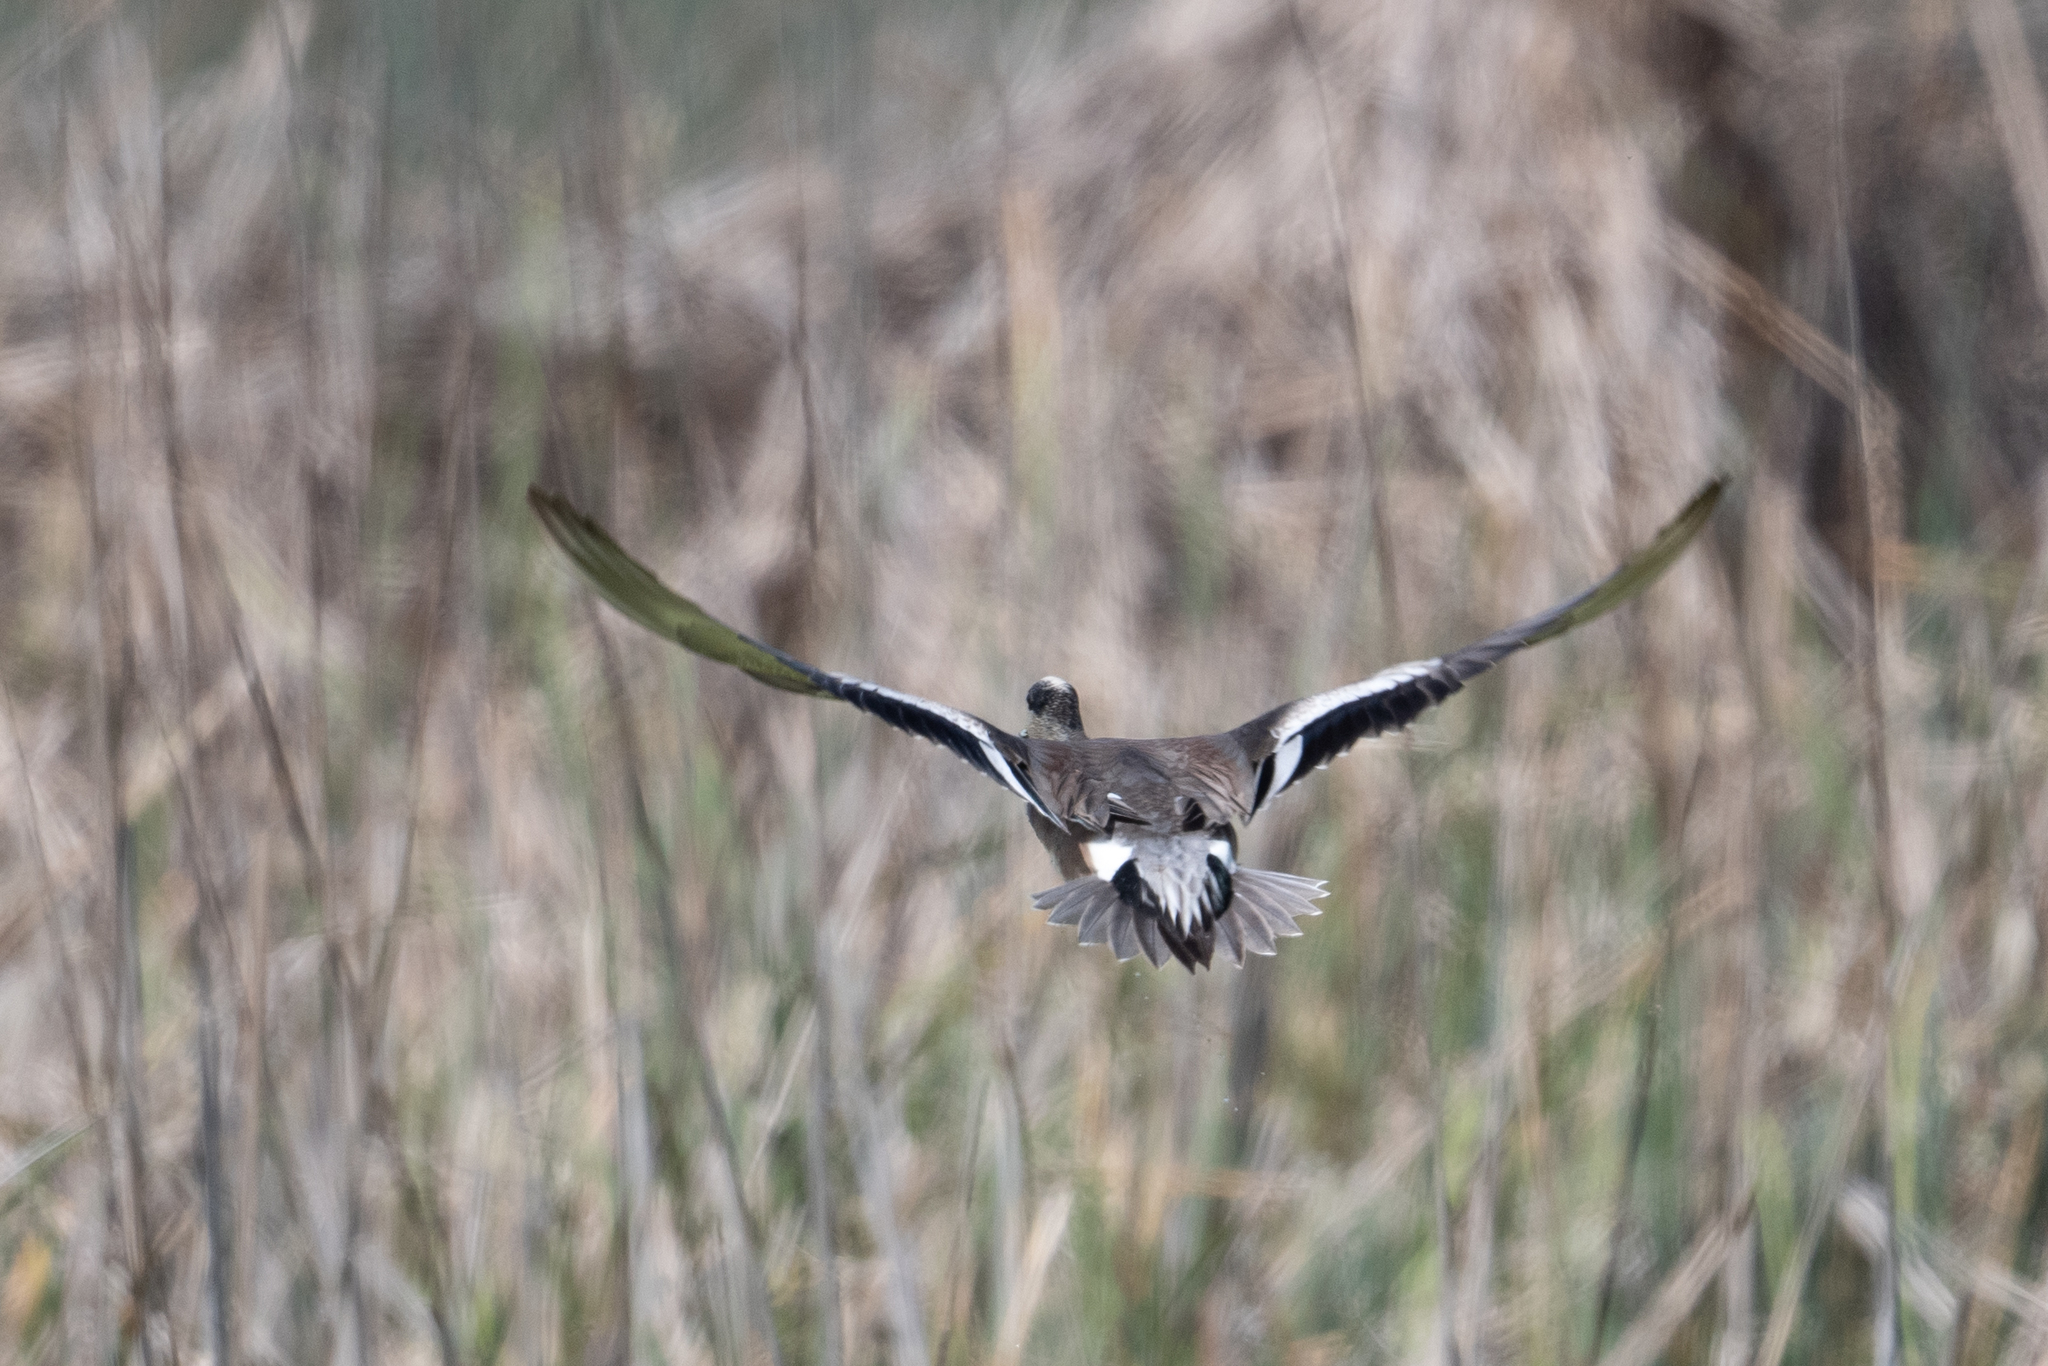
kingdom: Animalia
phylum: Chordata
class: Aves
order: Anseriformes
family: Anatidae
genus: Mareca
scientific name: Mareca americana
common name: American wigeon
